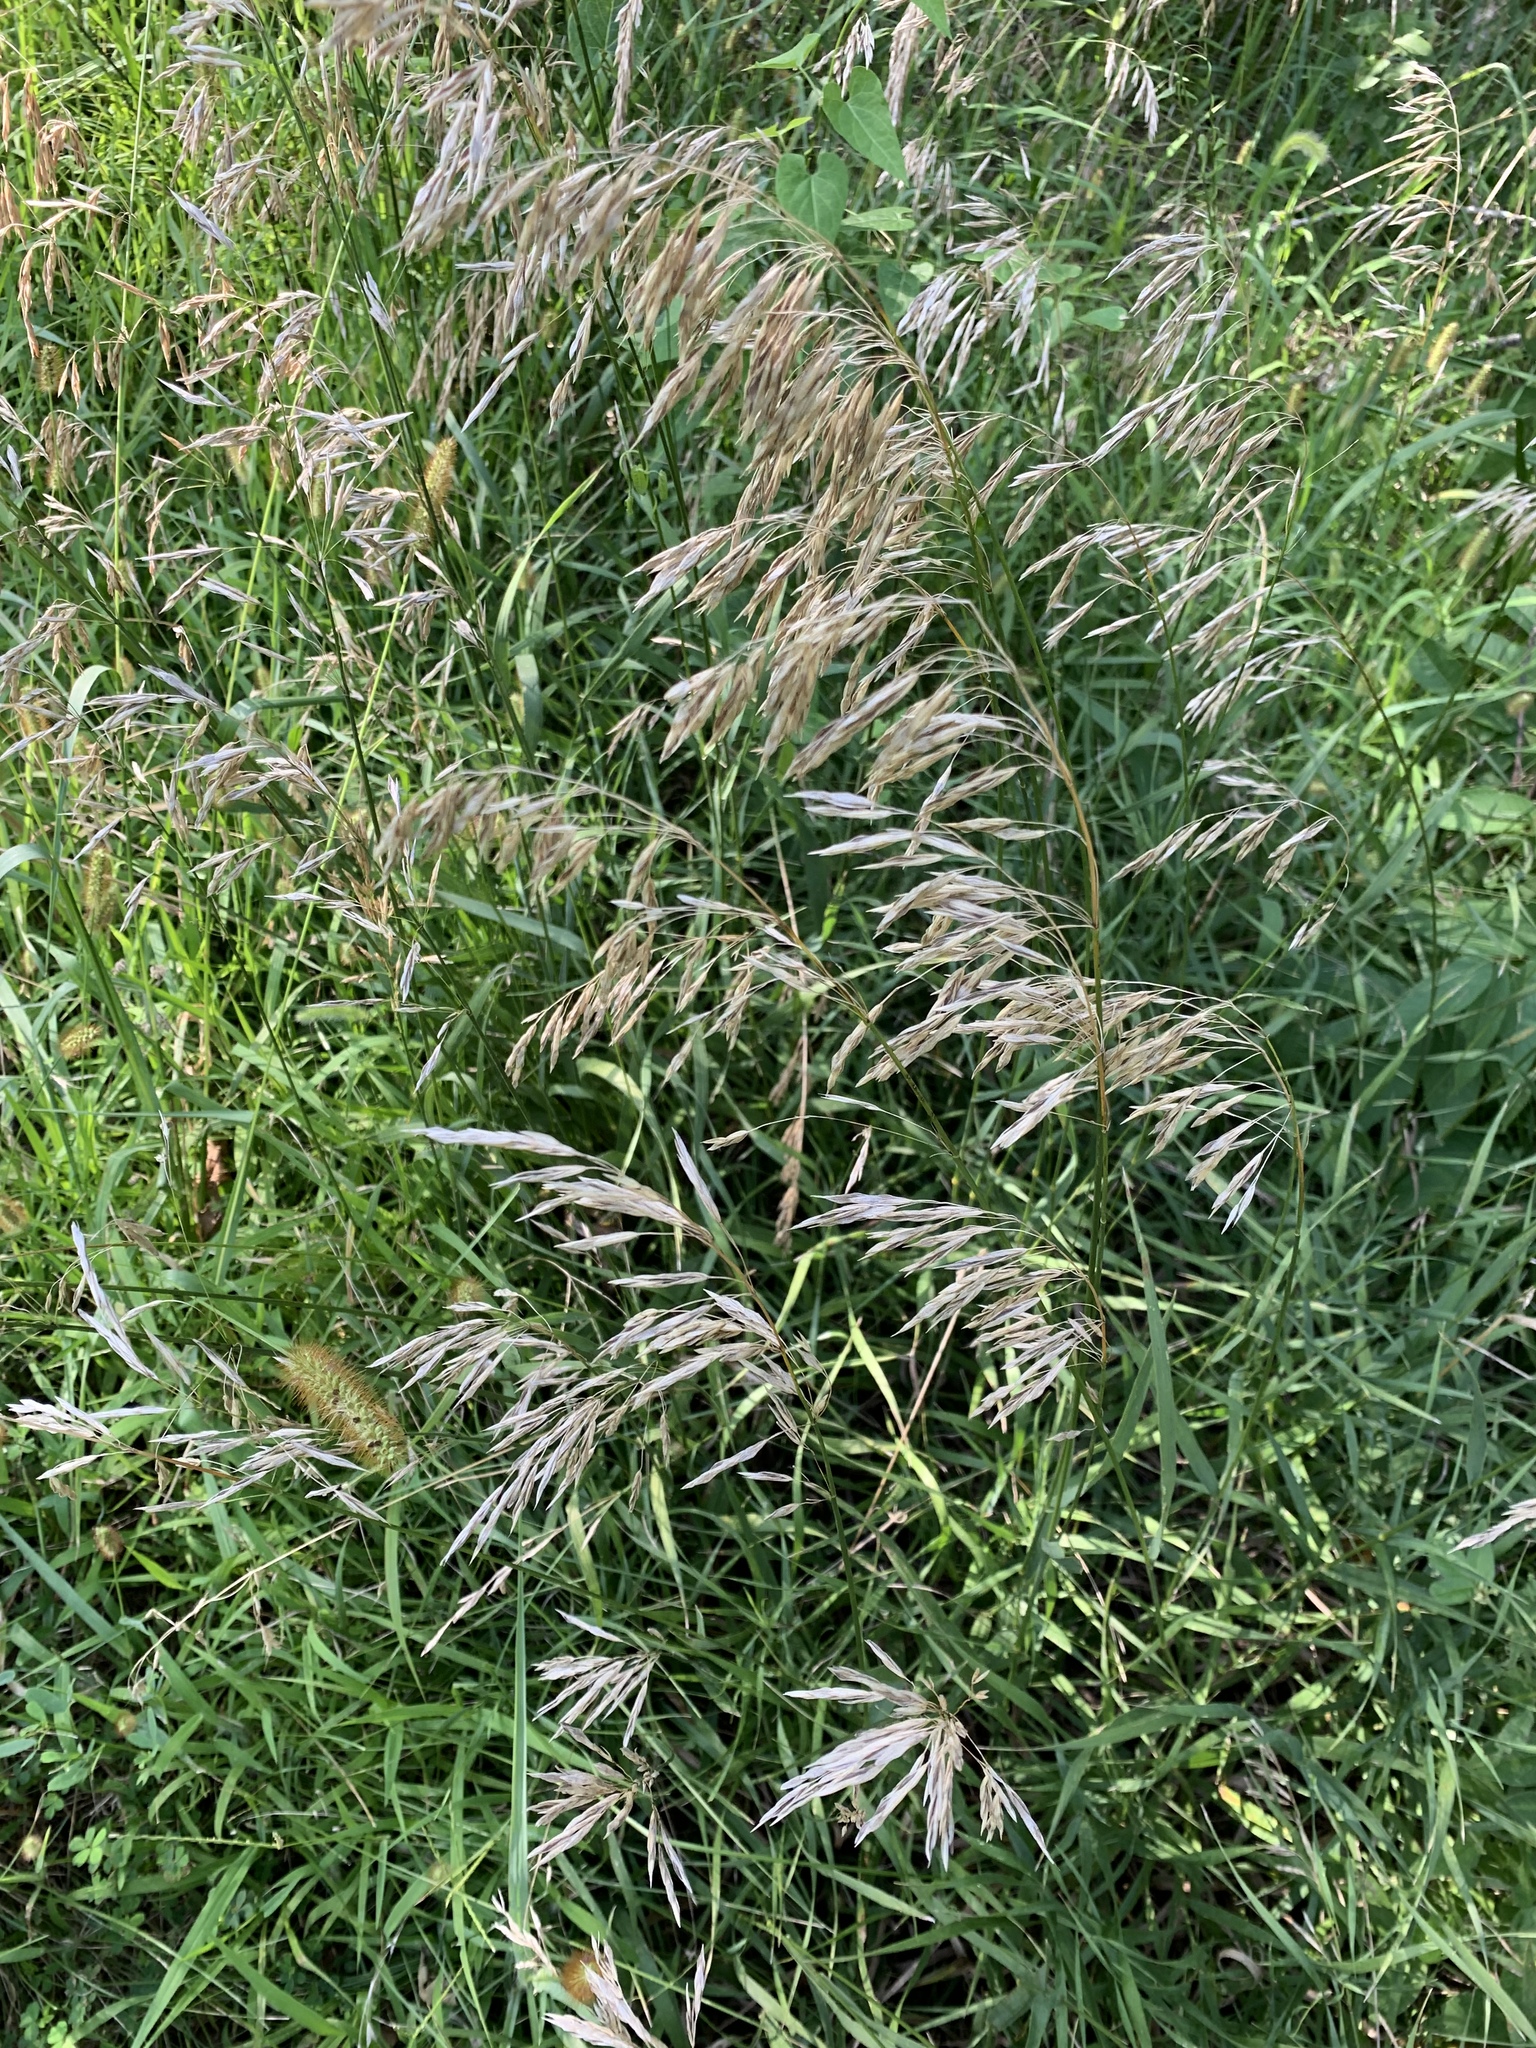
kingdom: Plantae
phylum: Tracheophyta
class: Liliopsida
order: Poales
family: Poaceae
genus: Bromus
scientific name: Bromus inermis
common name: Smooth brome
